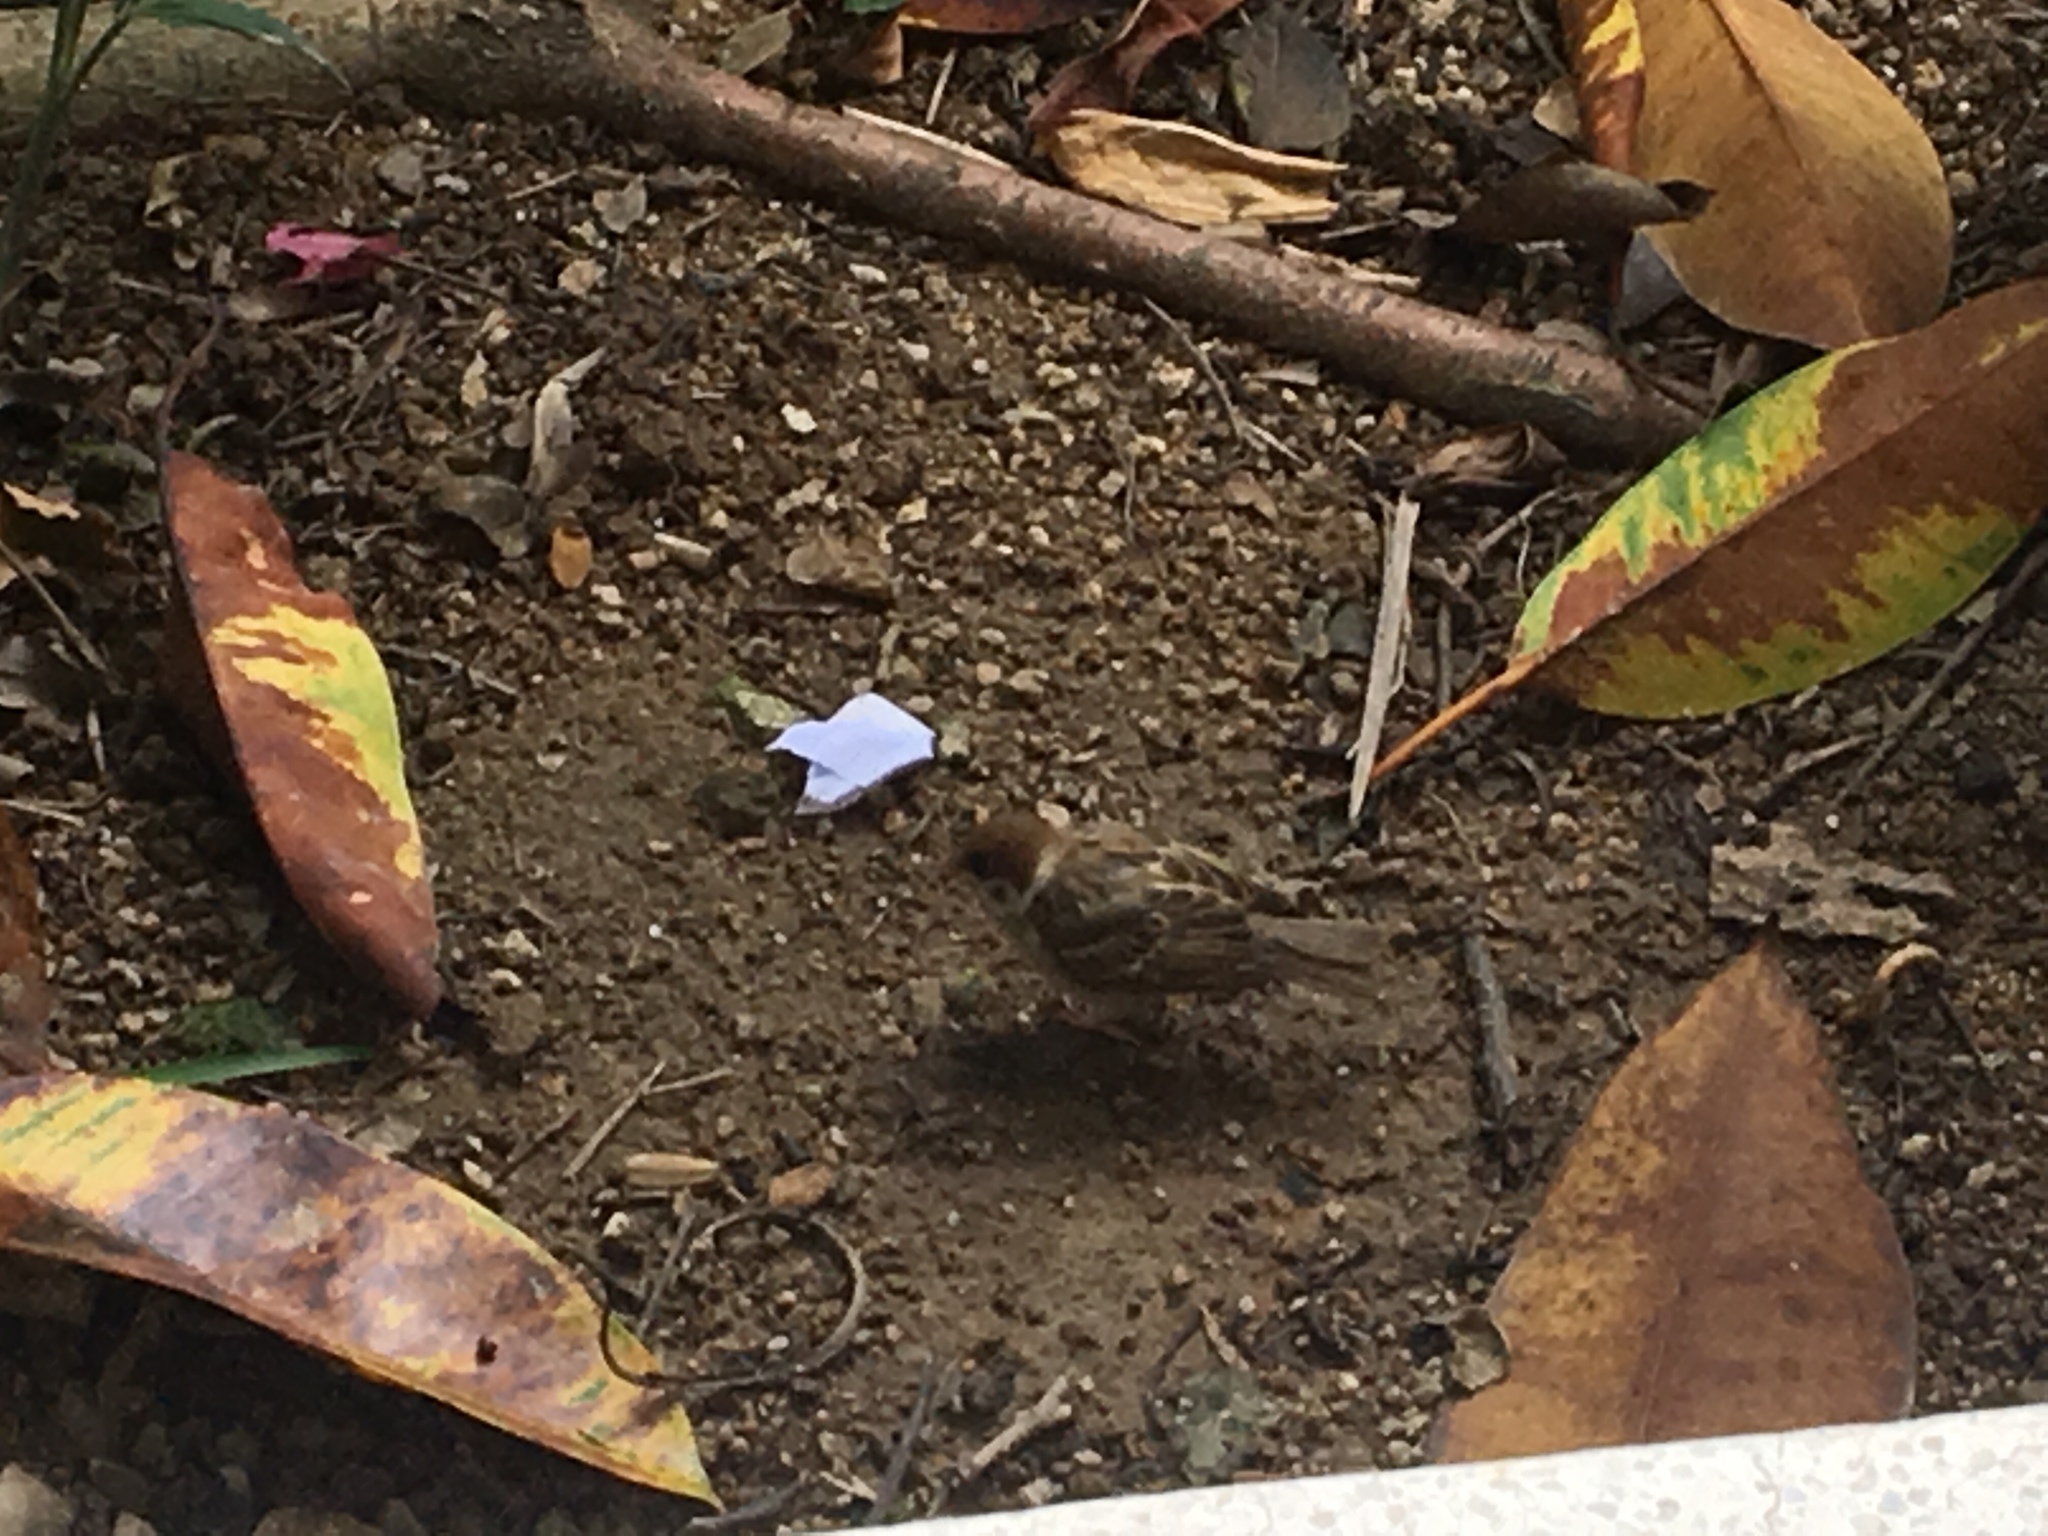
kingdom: Animalia
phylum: Chordata
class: Aves
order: Passeriformes
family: Passeridae
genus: Passer
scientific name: Passer montanus
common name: Eurasian tree sparrow
